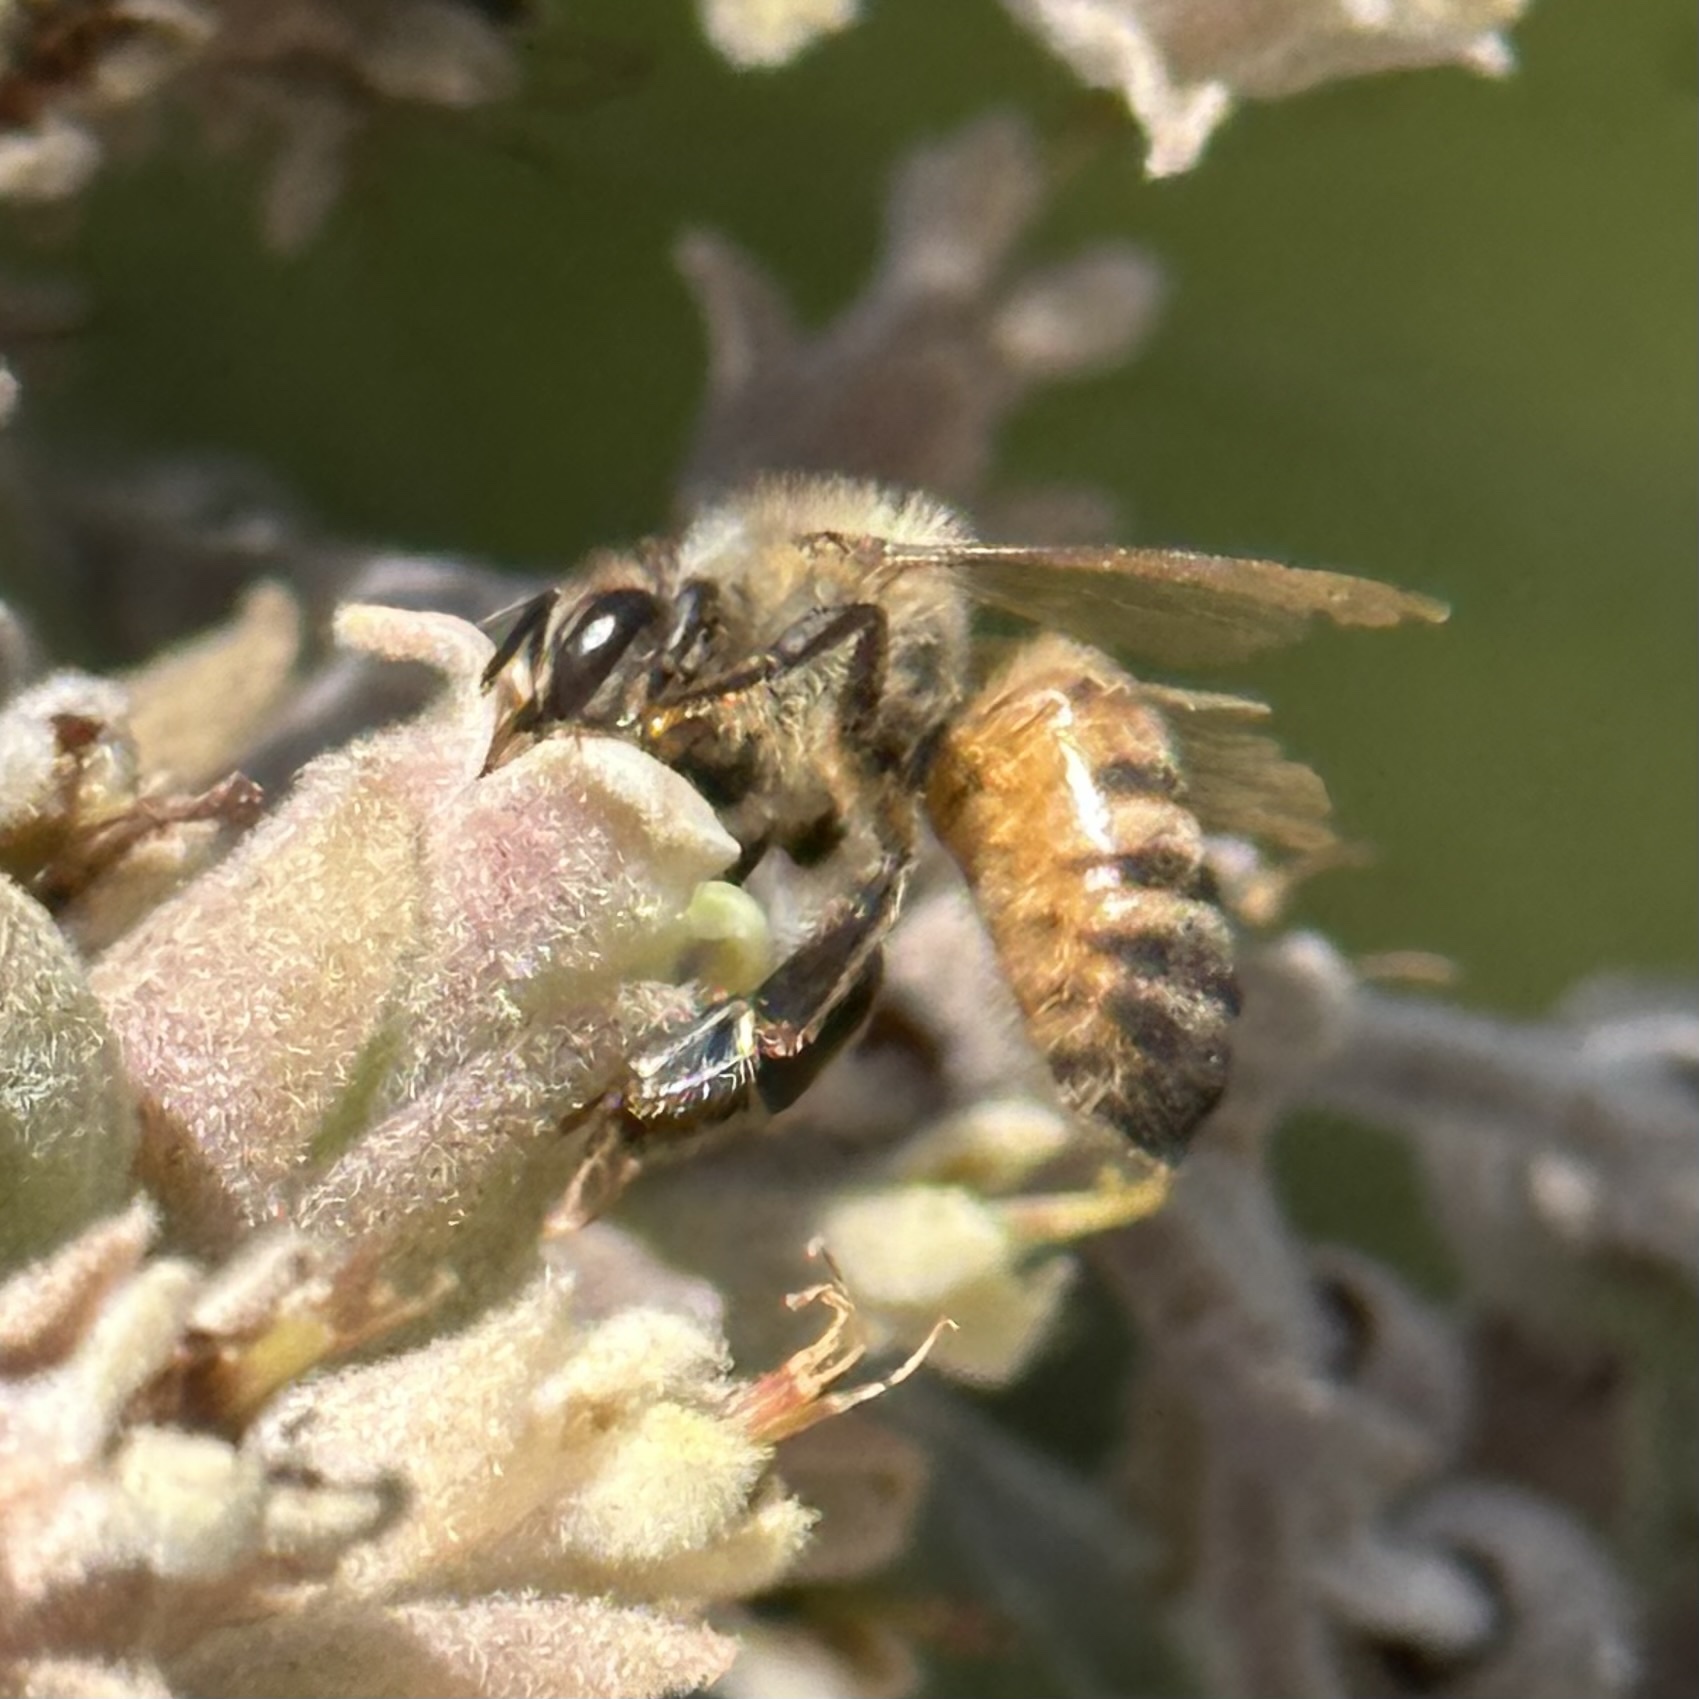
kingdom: Animalia
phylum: Arthropoda
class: Insecta
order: Hymenoptera
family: Apidae
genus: Apis
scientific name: Apis mellifera
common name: Honey bee
